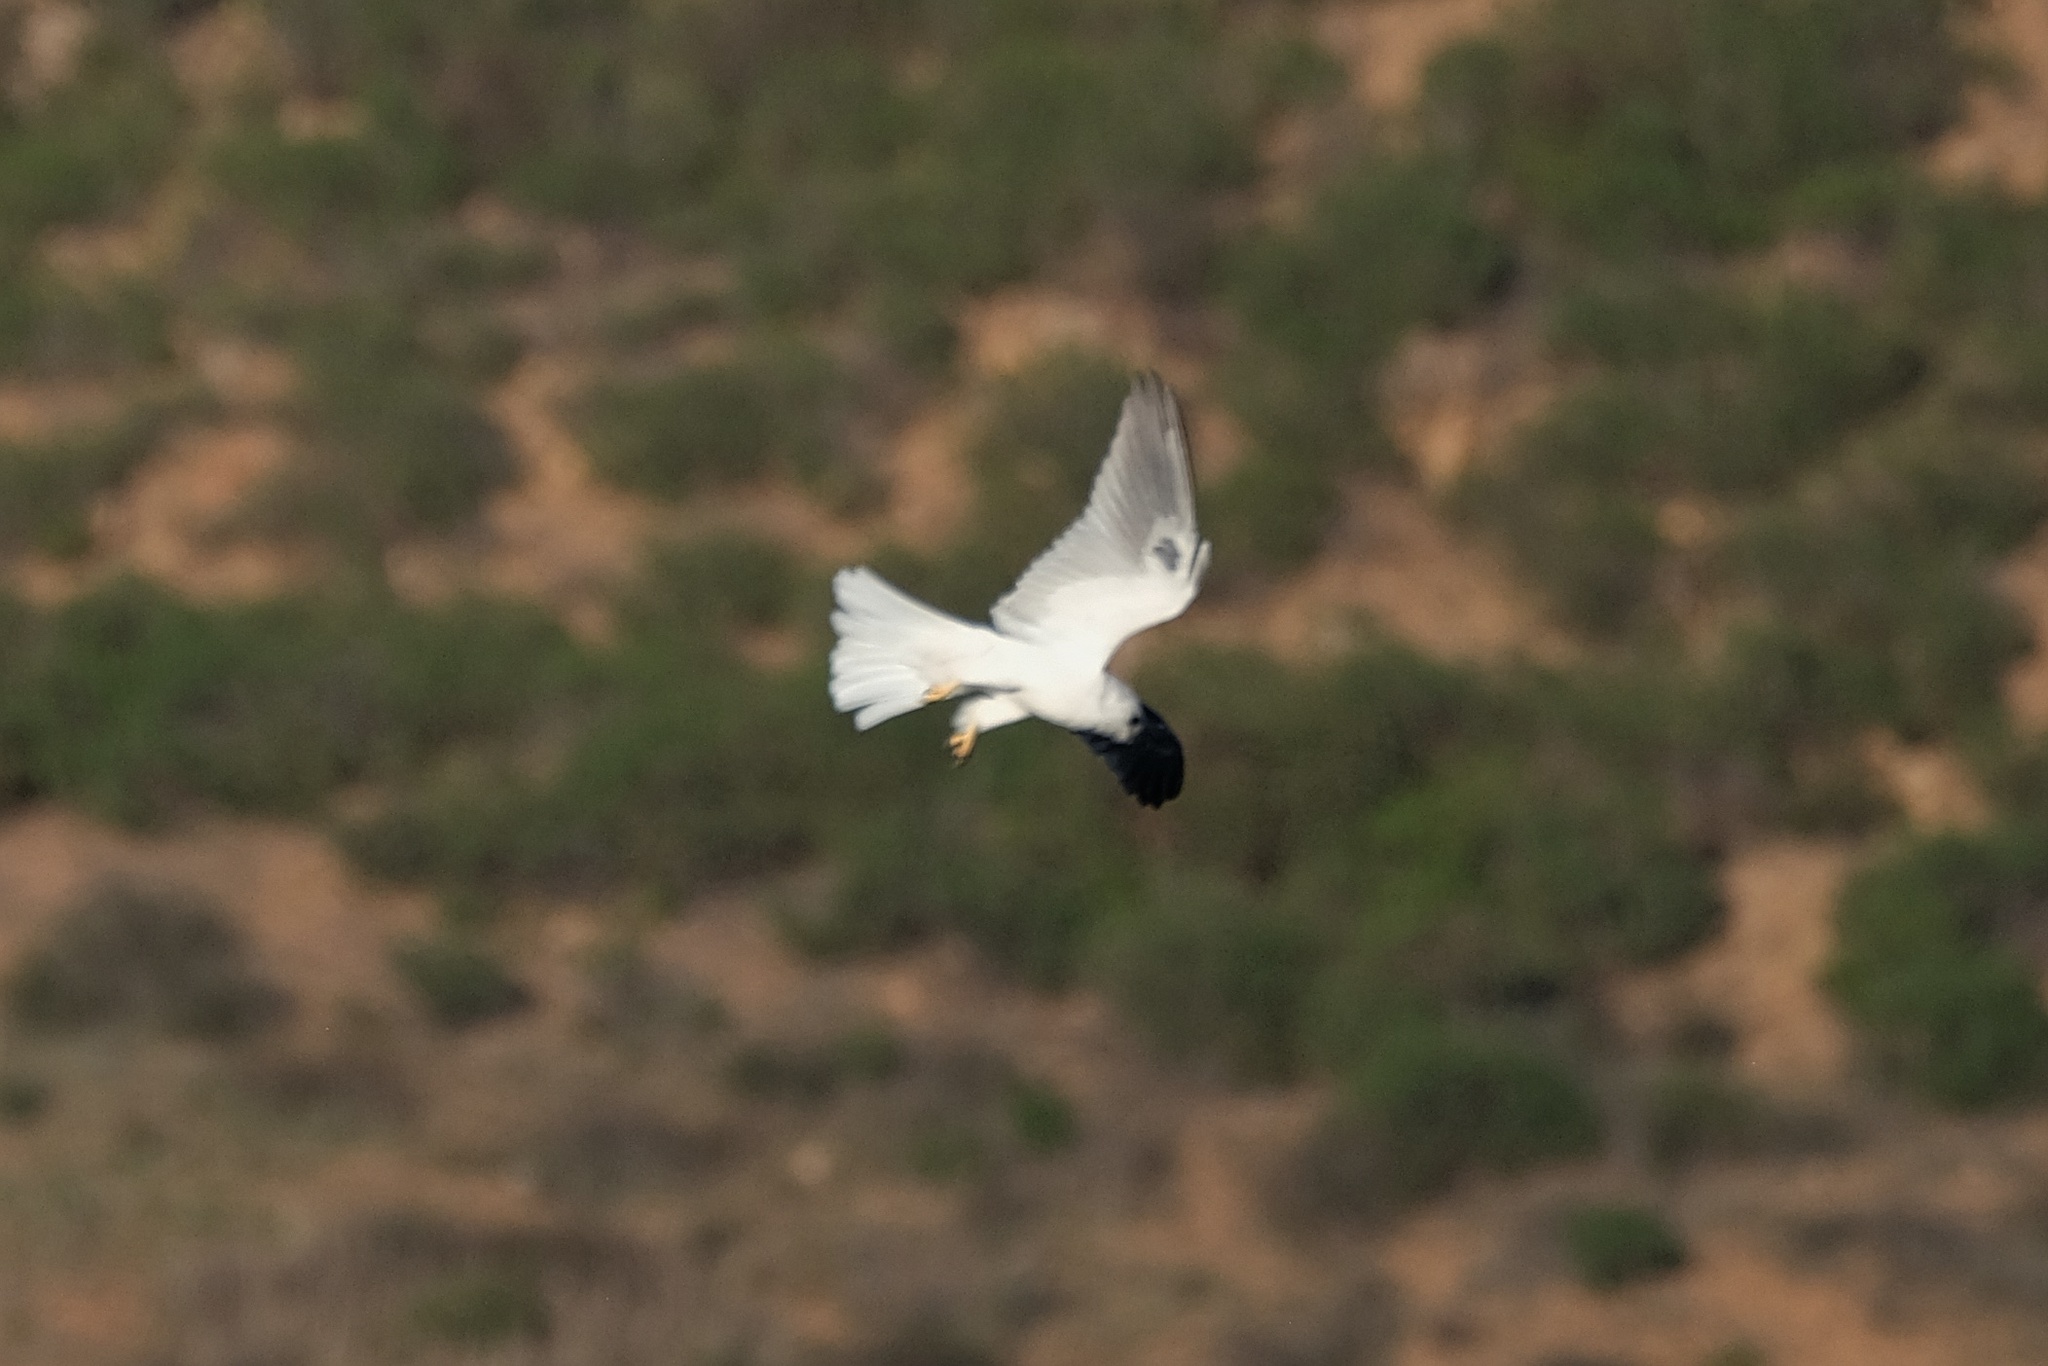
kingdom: Animalia
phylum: Chordata
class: Aves
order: Accipitriformes
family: Accipitridae
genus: Elanus
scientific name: Elanus leucurus
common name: White-tailed kite
